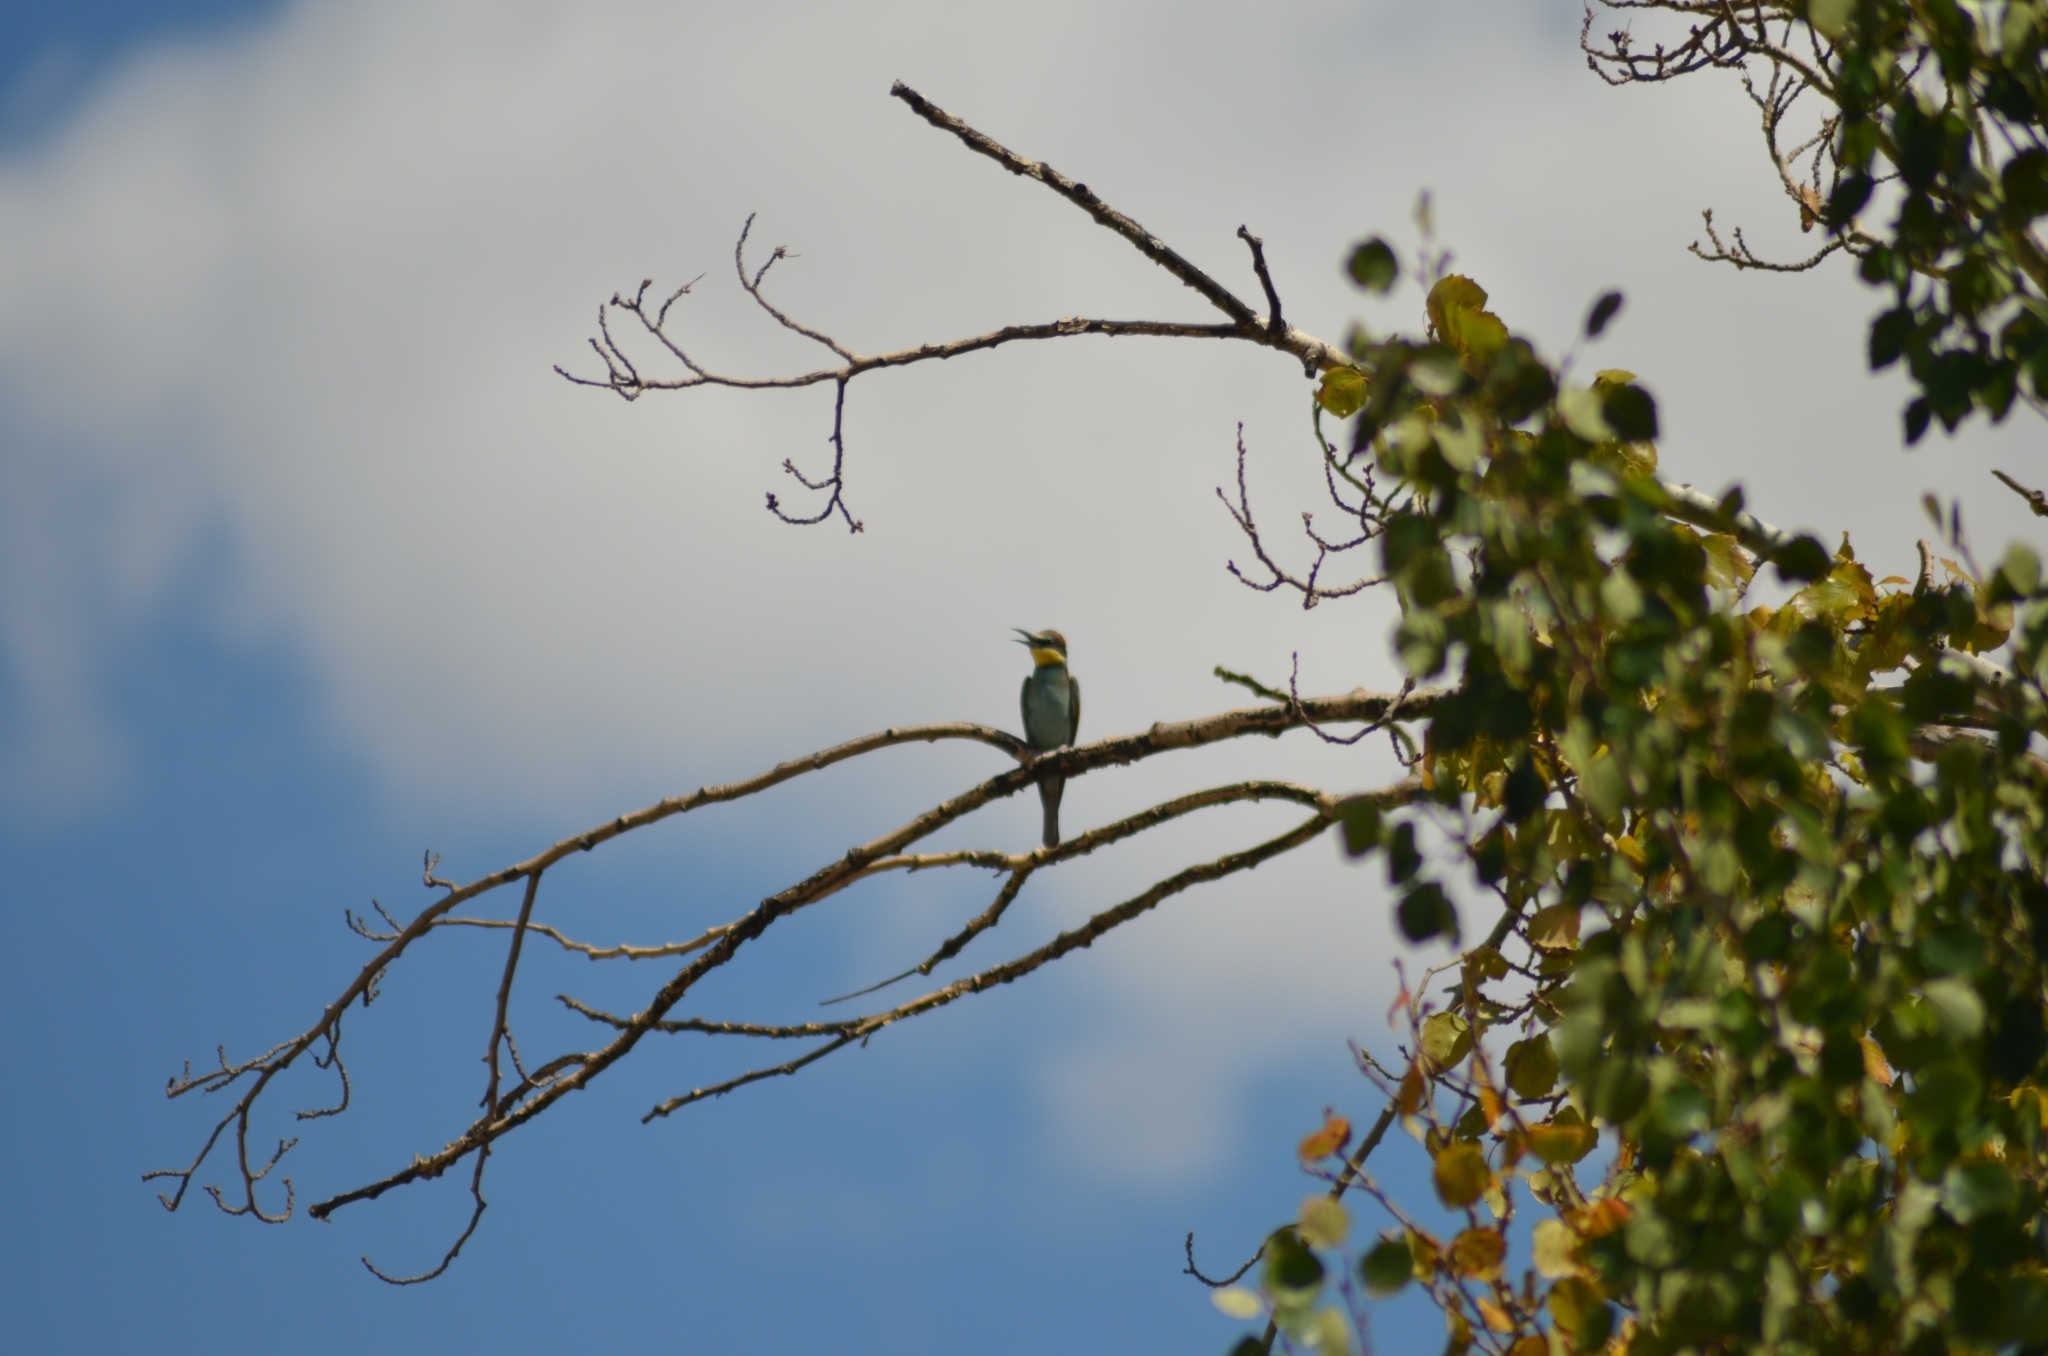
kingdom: Animalia
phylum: Chordata
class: Aves
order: Coraciiformes
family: Meropidae
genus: Merops
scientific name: Merops apiaster
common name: European bee-eater
